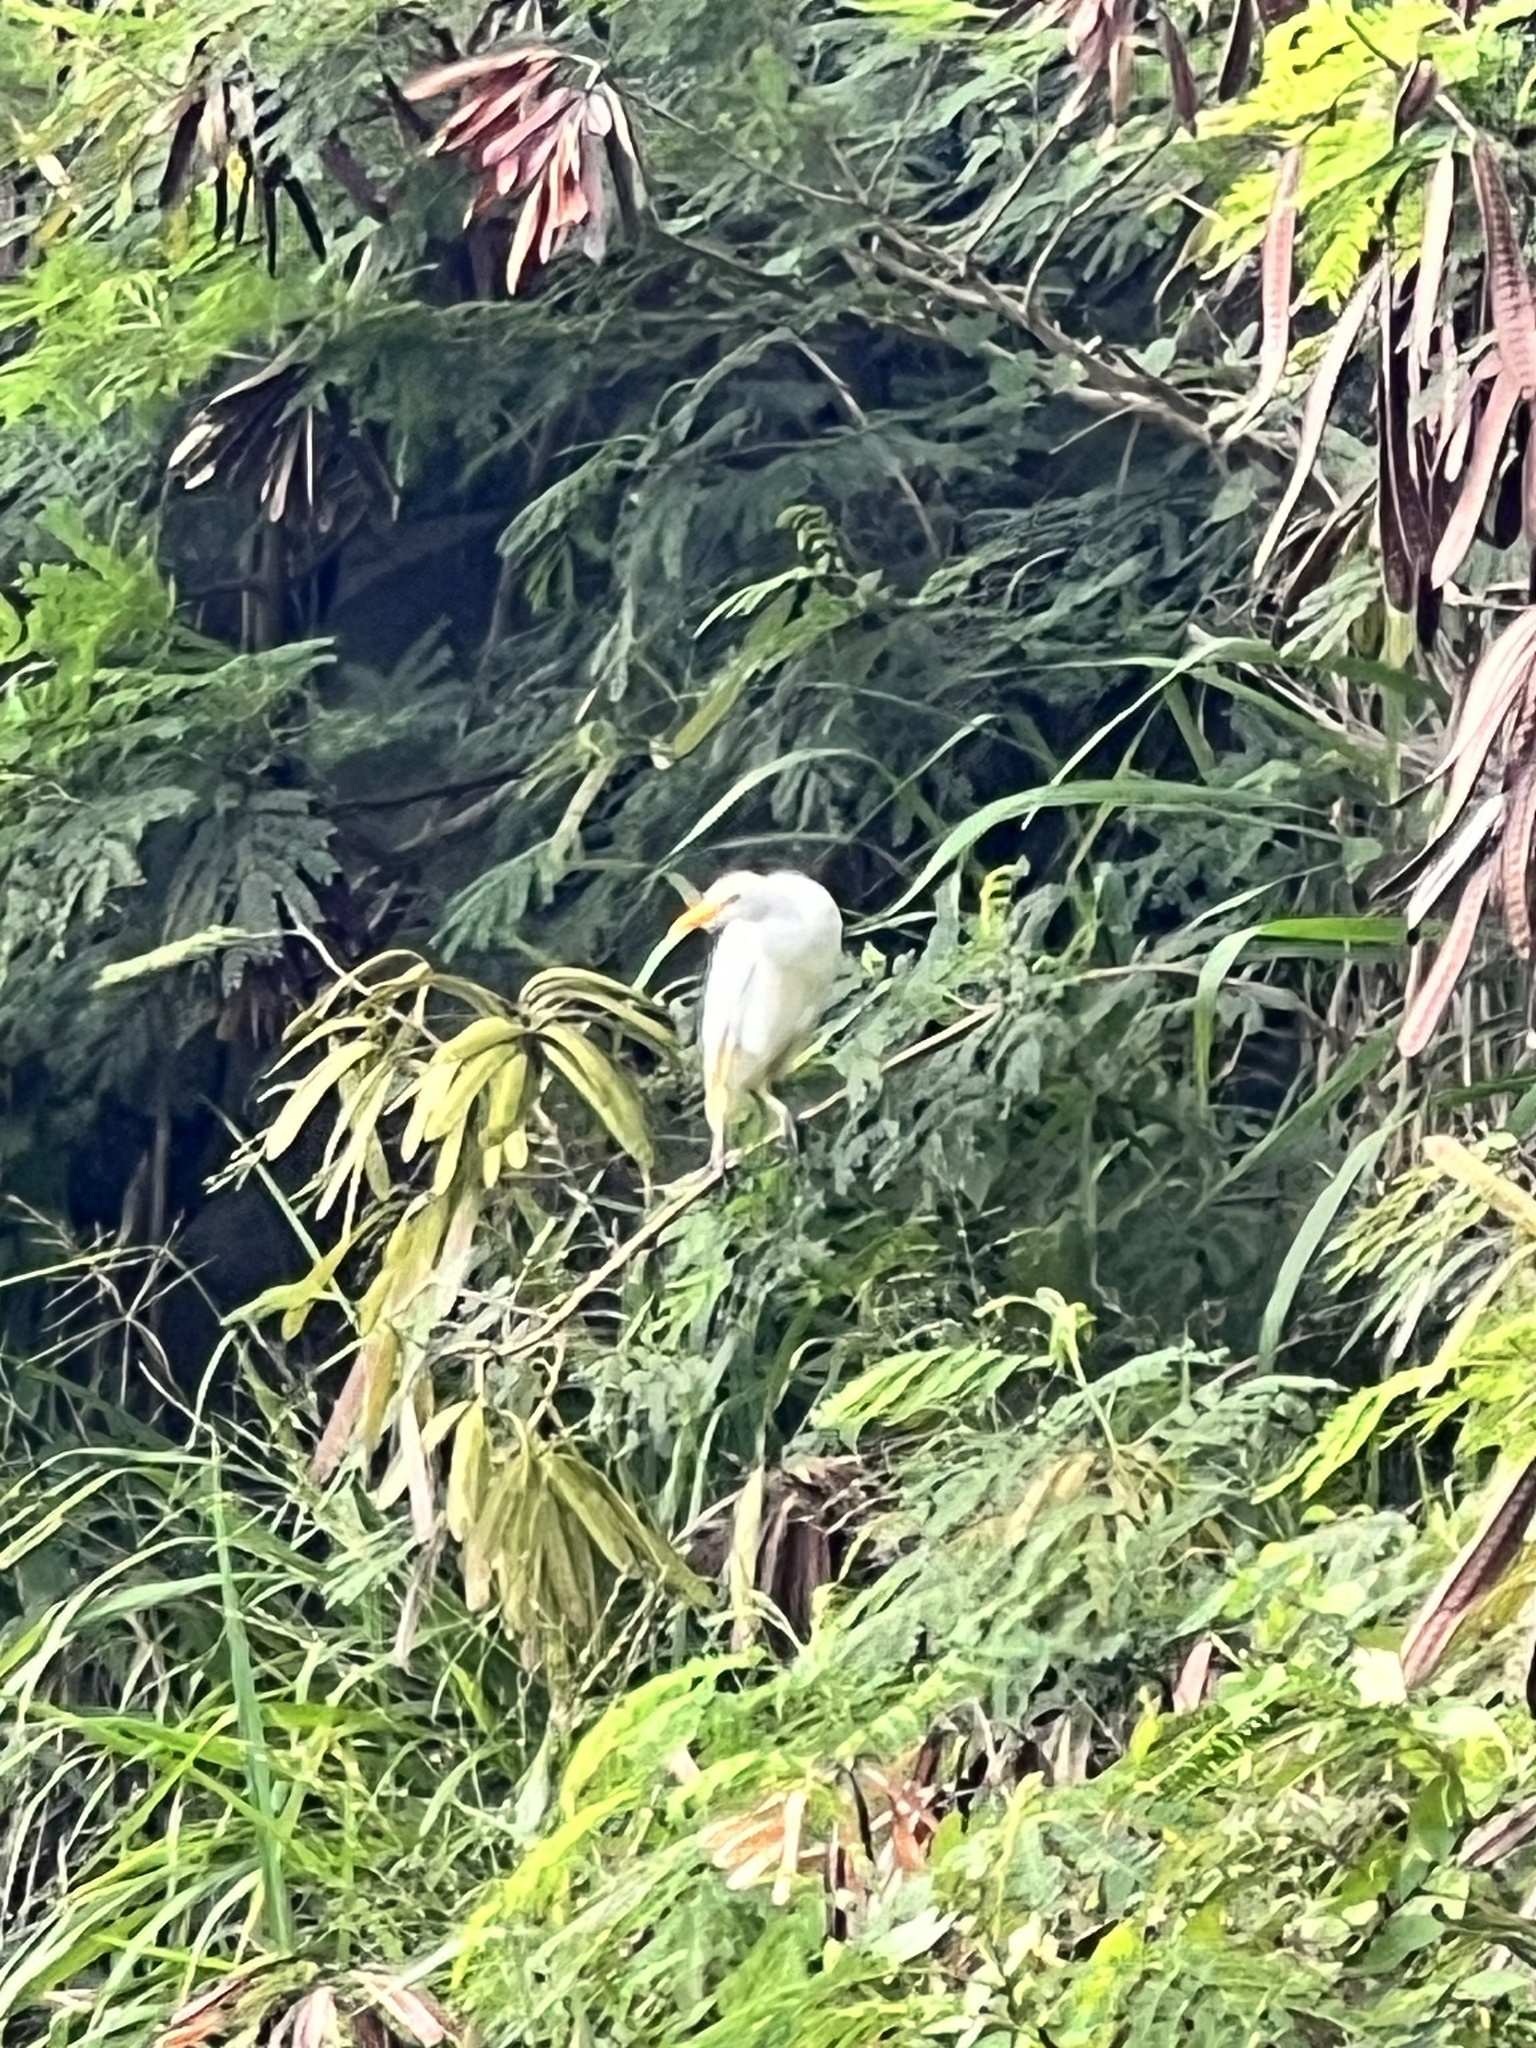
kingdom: Animalia
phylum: Chordata
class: Aves
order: Pelecaniformes
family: Ardeidae
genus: Bubulcus
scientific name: Bubulcus ibis
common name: Cattle egret
